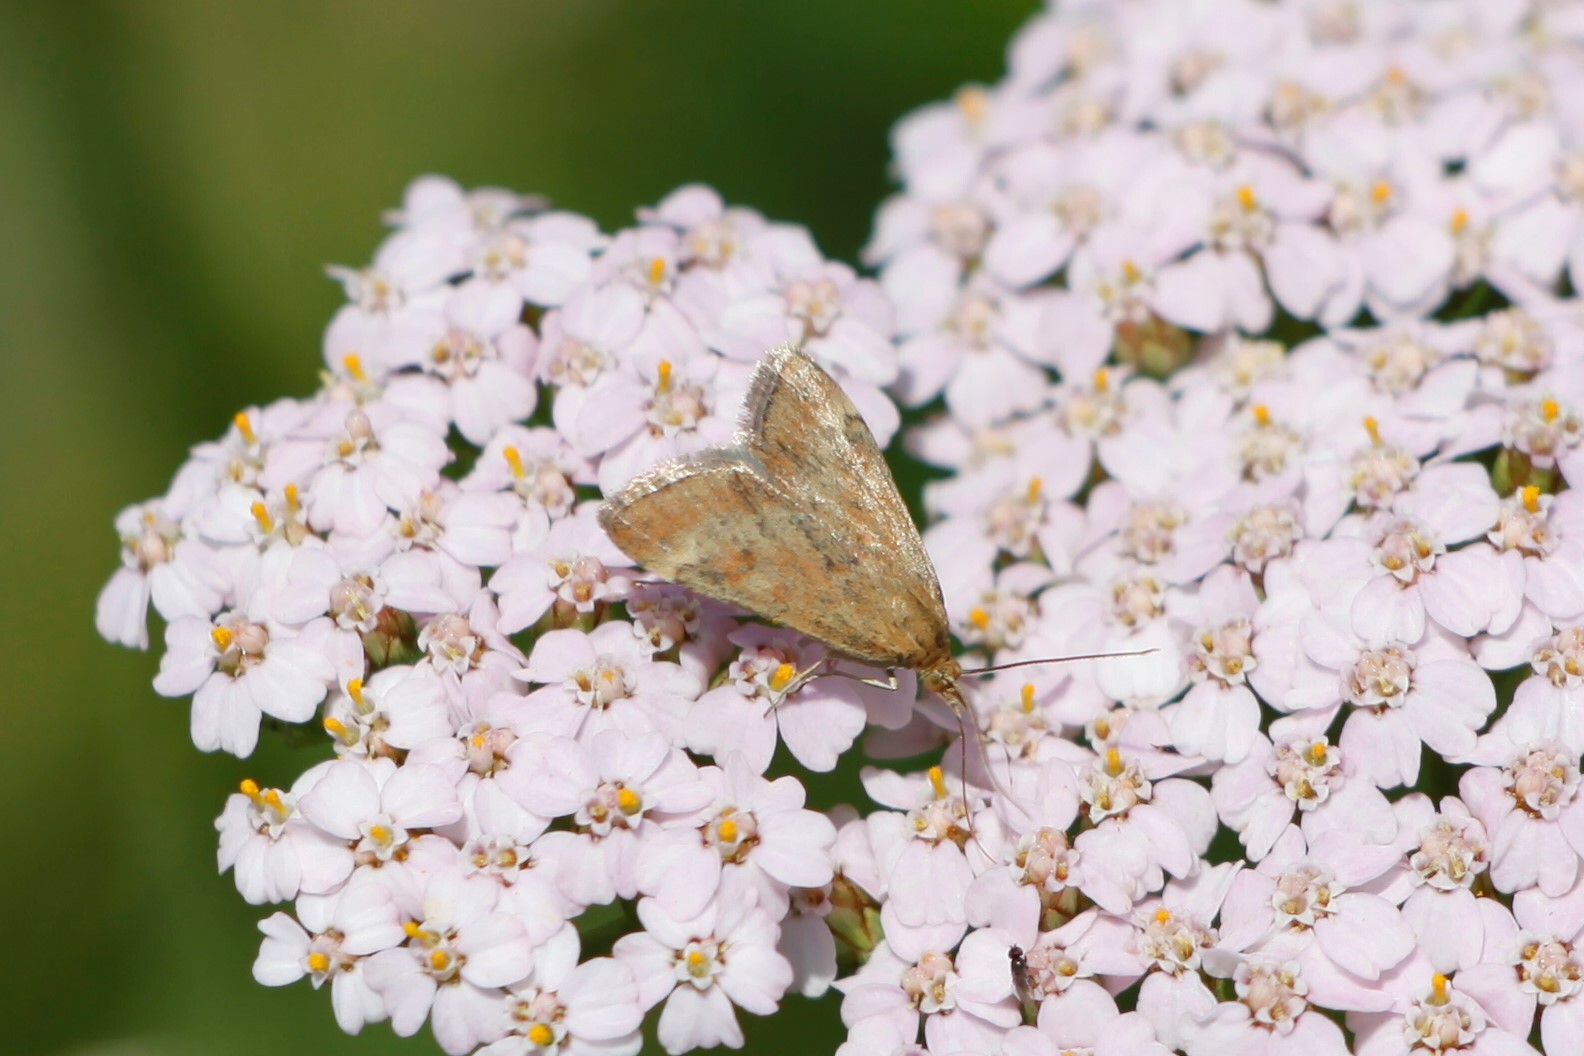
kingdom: Animalia
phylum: Arthropoda
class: Insecta
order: Lepidoptera
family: Crambidae
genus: Pyrausta
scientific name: Pyrausta despicata
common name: Straw-barred pearl
